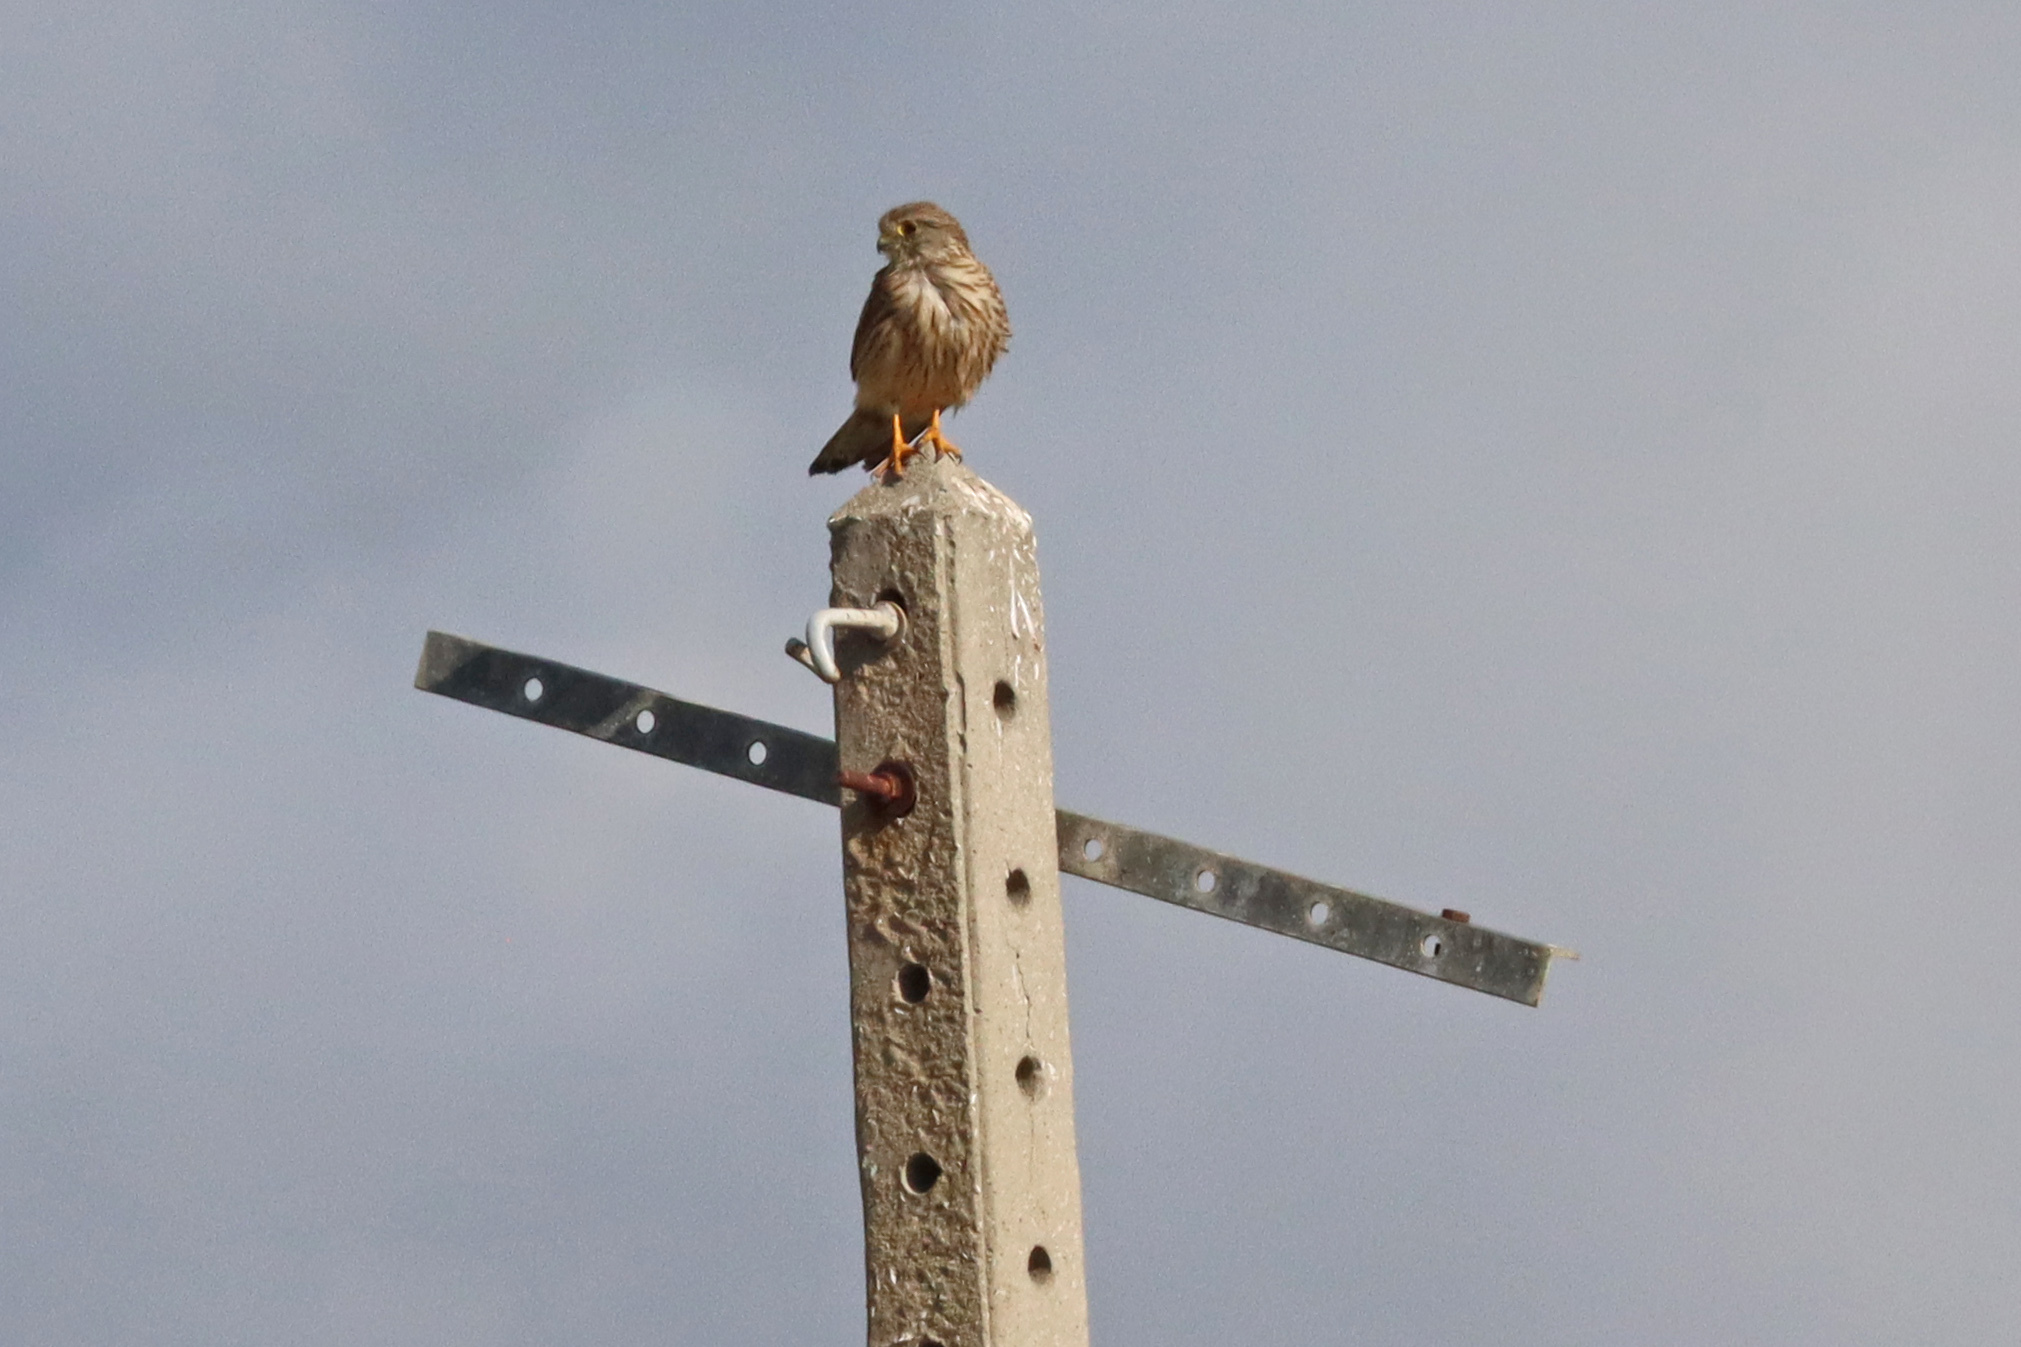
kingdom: Animalia
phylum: Chordata
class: Aves
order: Falconiformes
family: Falconidae
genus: Falco
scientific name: Falco tinnunculus
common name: Common kestrel
